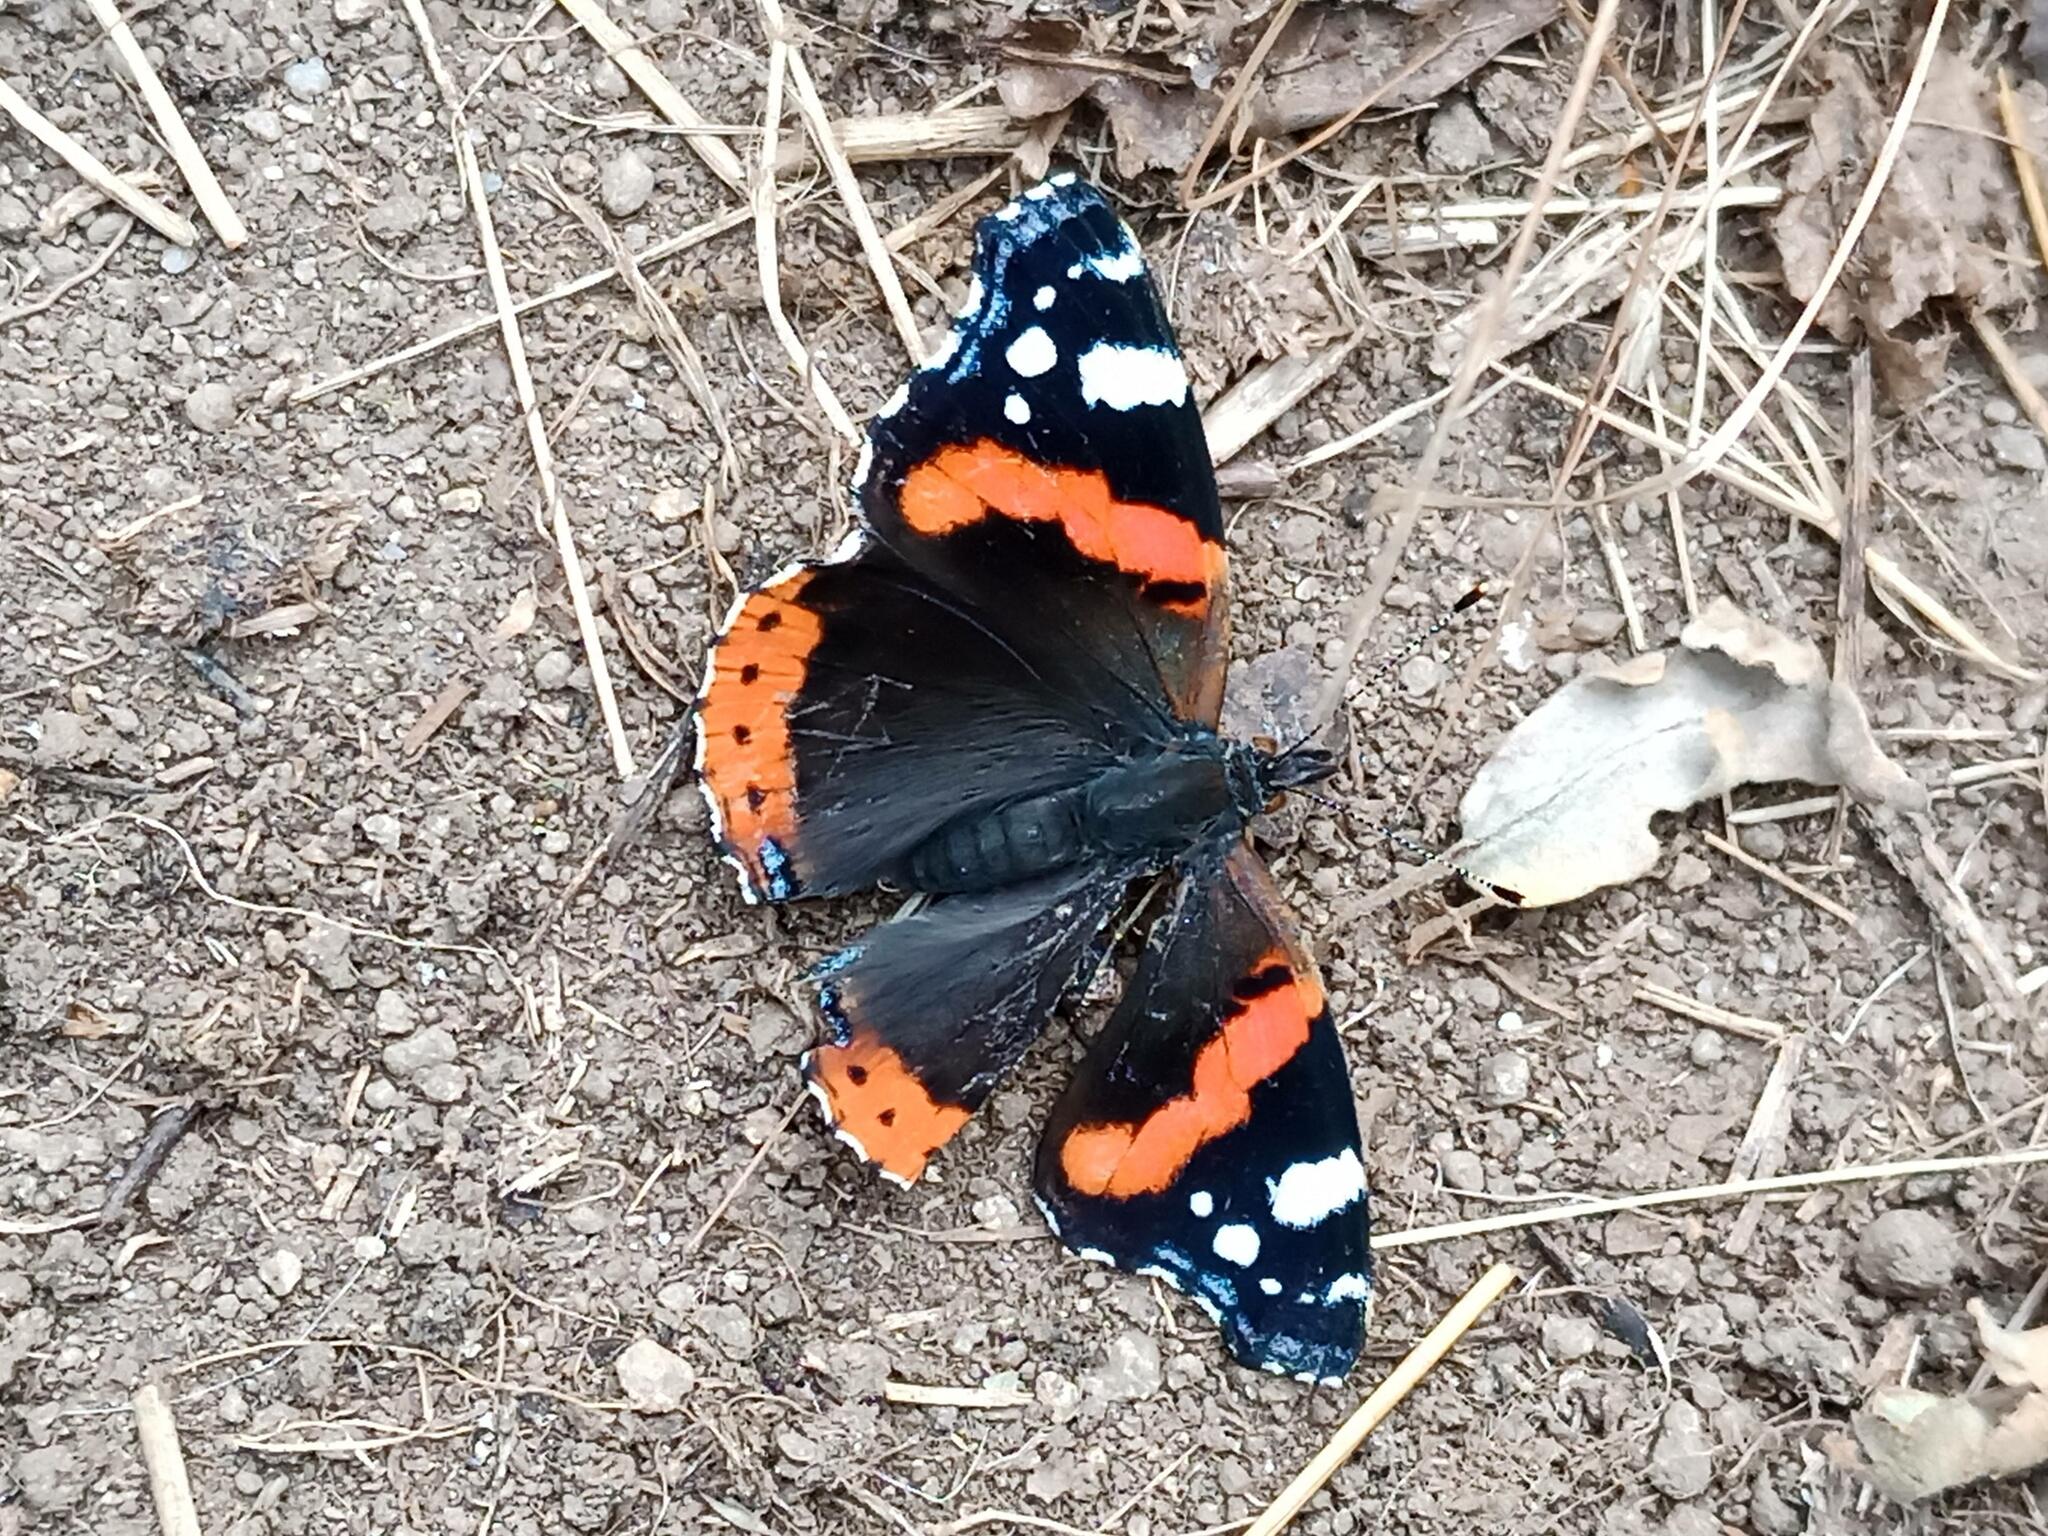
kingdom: Animalia
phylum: Arthropoda
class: Insecta
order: Lepidoptera
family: Nymphalidae
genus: Vanessa
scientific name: Vanessa atalanta
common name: Red admiral
